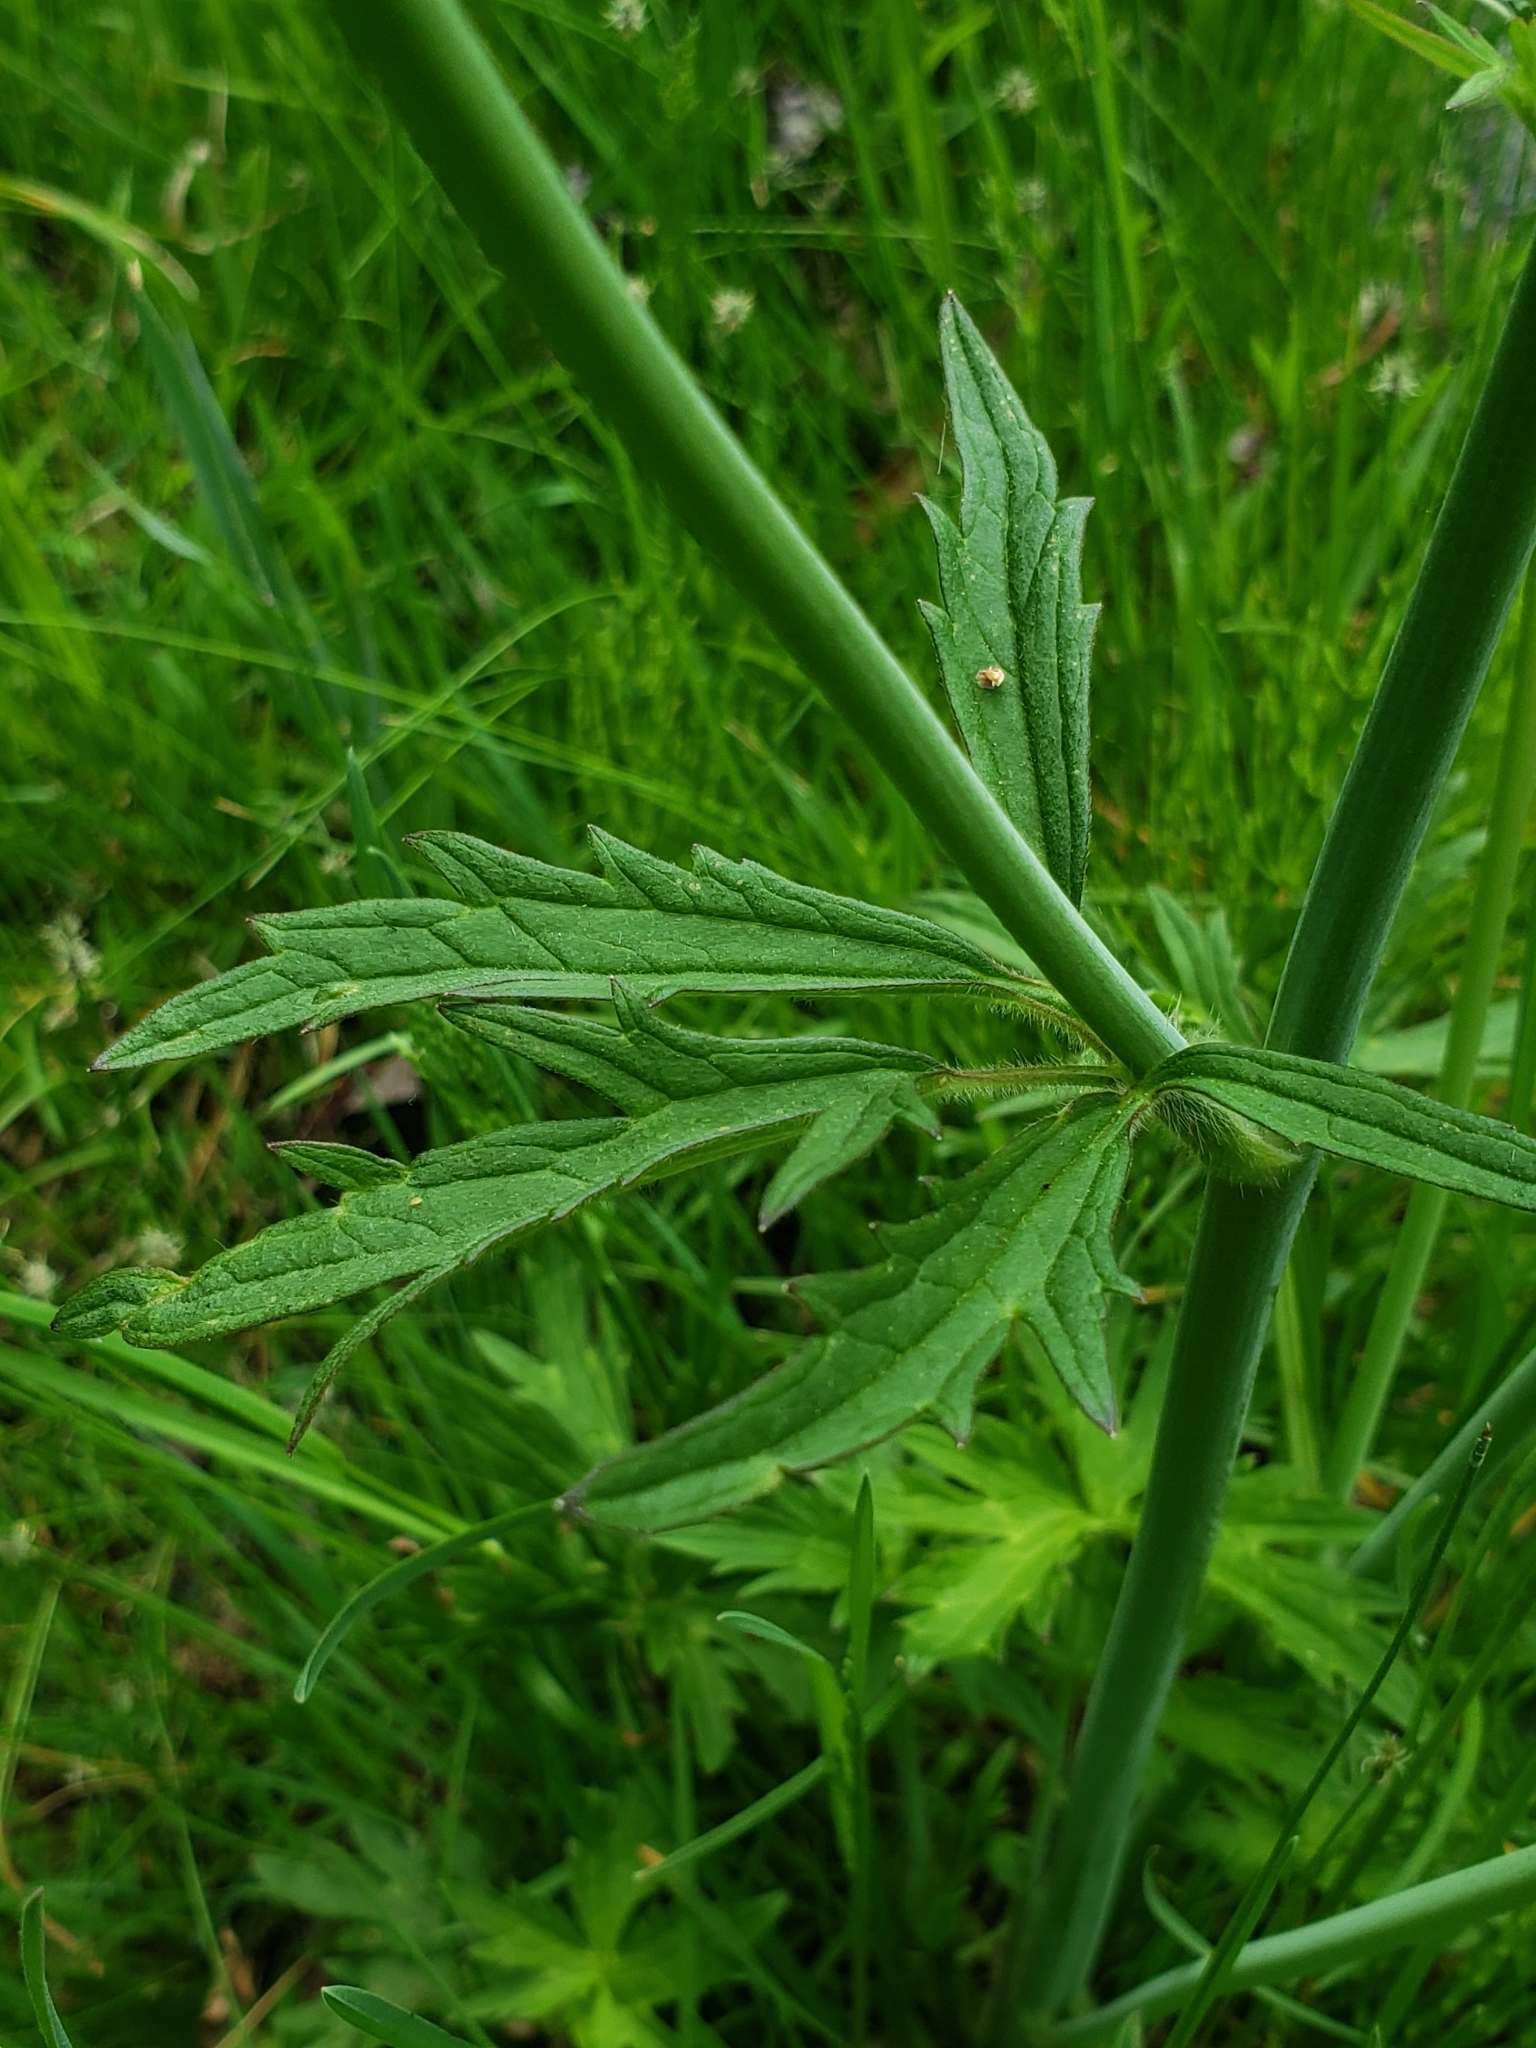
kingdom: Plantae
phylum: Tracheophyta
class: Magnoliopsida
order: Ranunculales
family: Ranunculaceae
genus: Ranunculus
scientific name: Ranunculus acris
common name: Meadow buttercup
